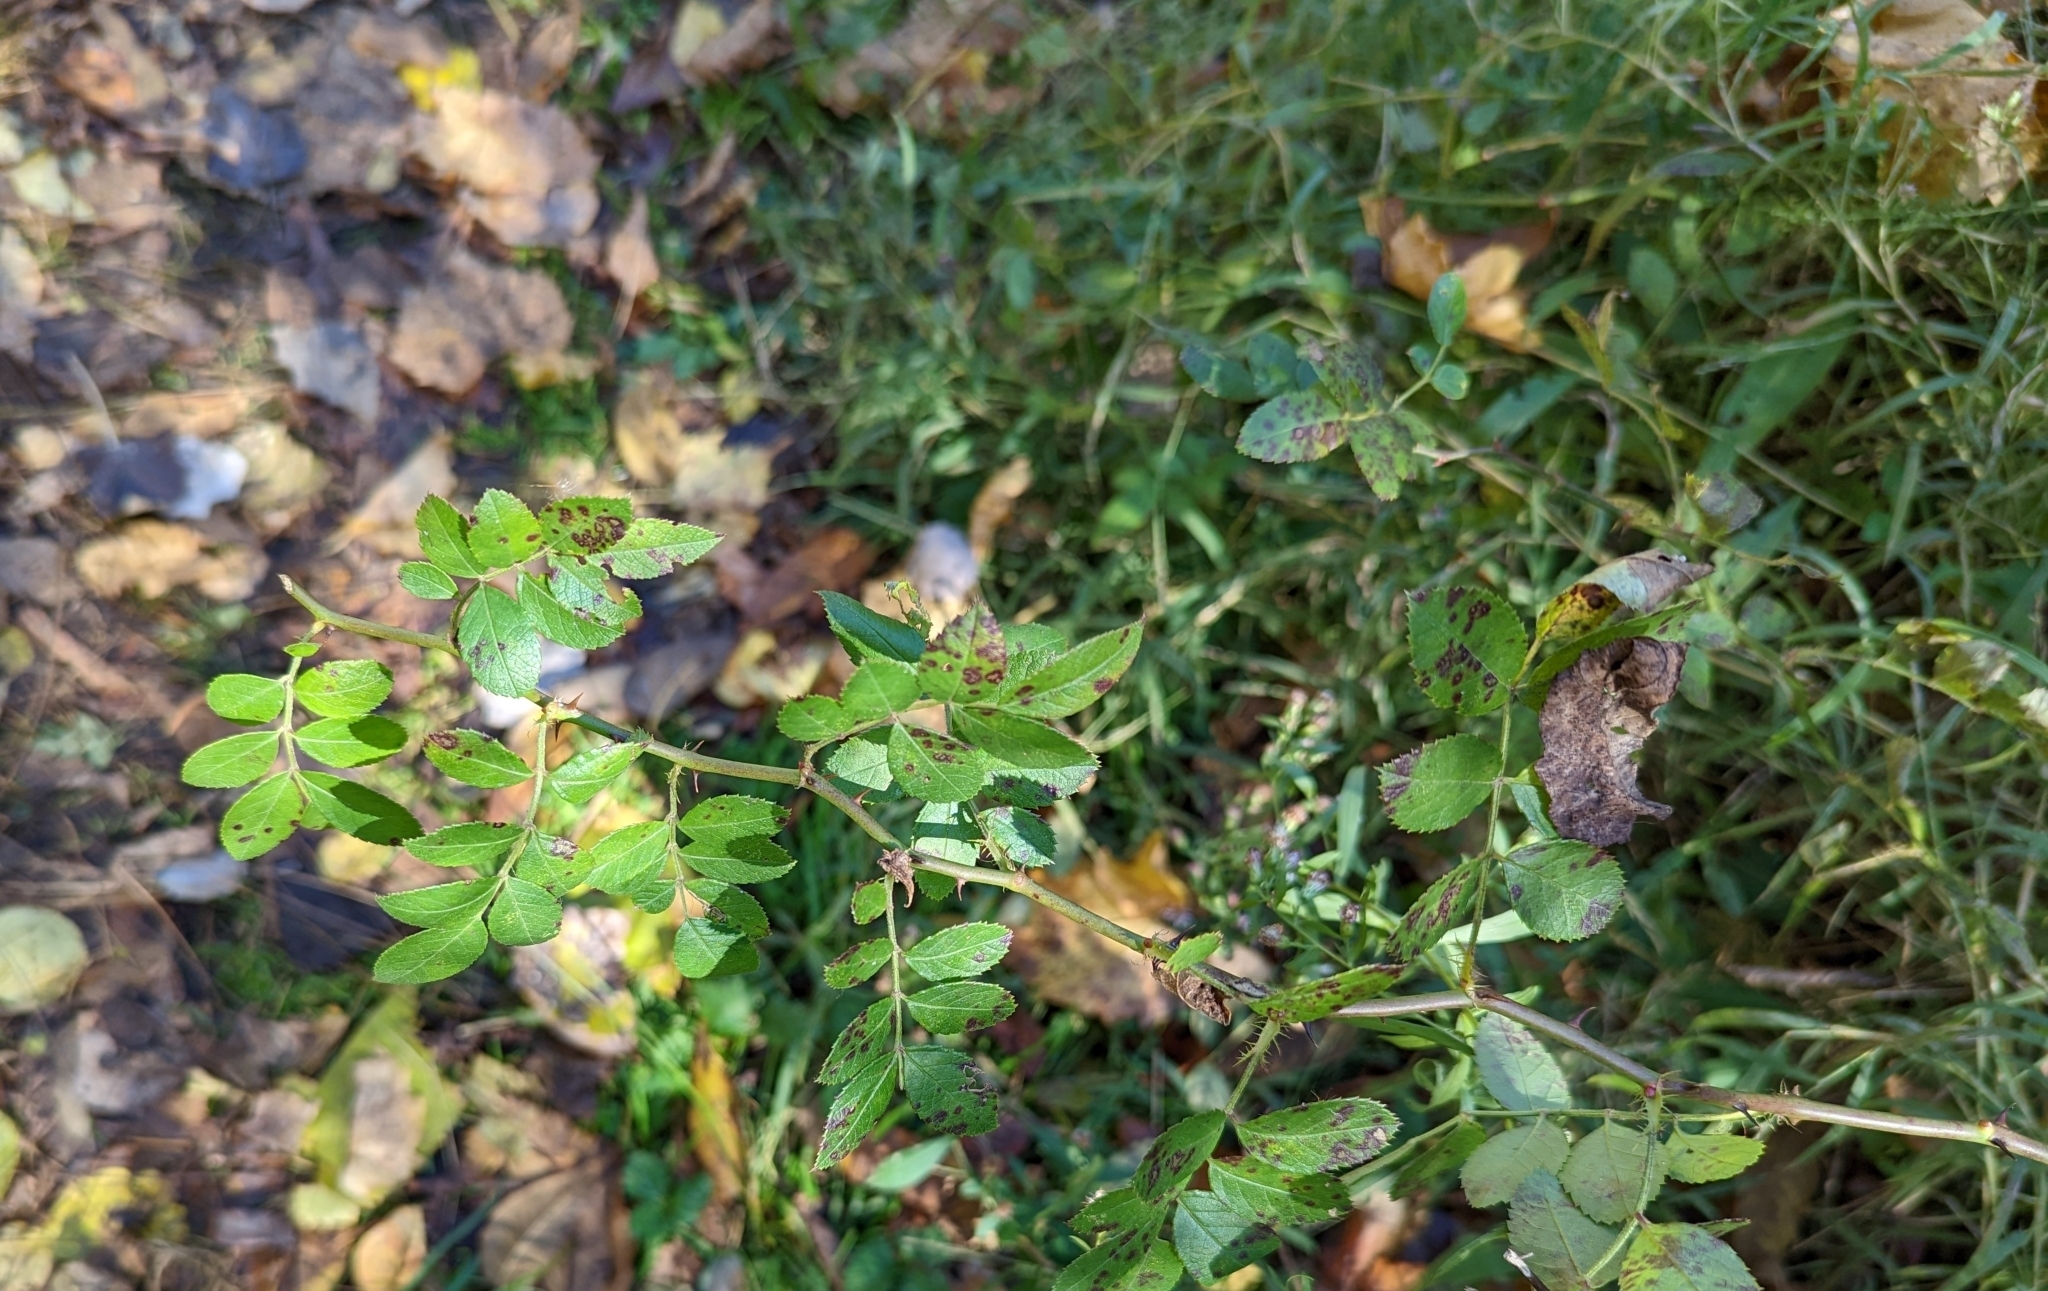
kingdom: Plantae
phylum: Tracheophyta
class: Magnoliopsida
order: Rosales
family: Rosaceae
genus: Rosa
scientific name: Rosa multiflora
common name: Multiflora rose
